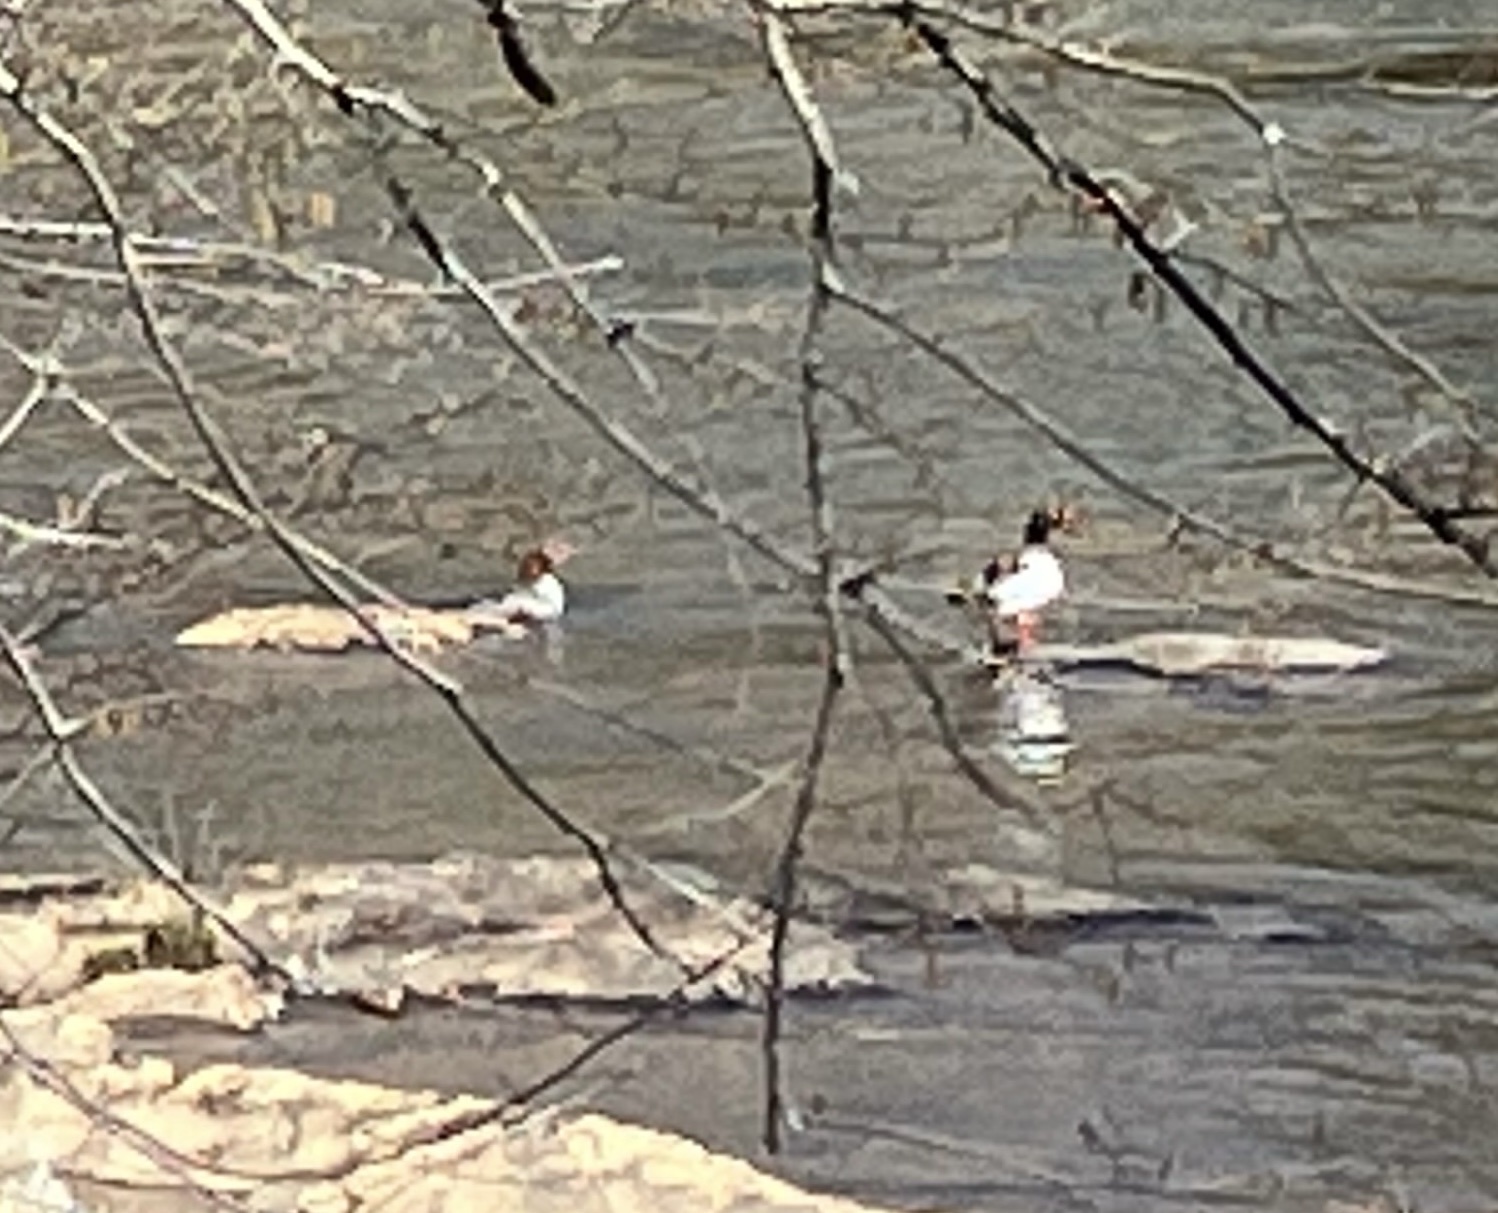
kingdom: Animalia
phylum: Chordata
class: Aves
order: Anseriformes
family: Anatidae
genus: Mergus
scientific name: Mergus merganser
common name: Common merganser
